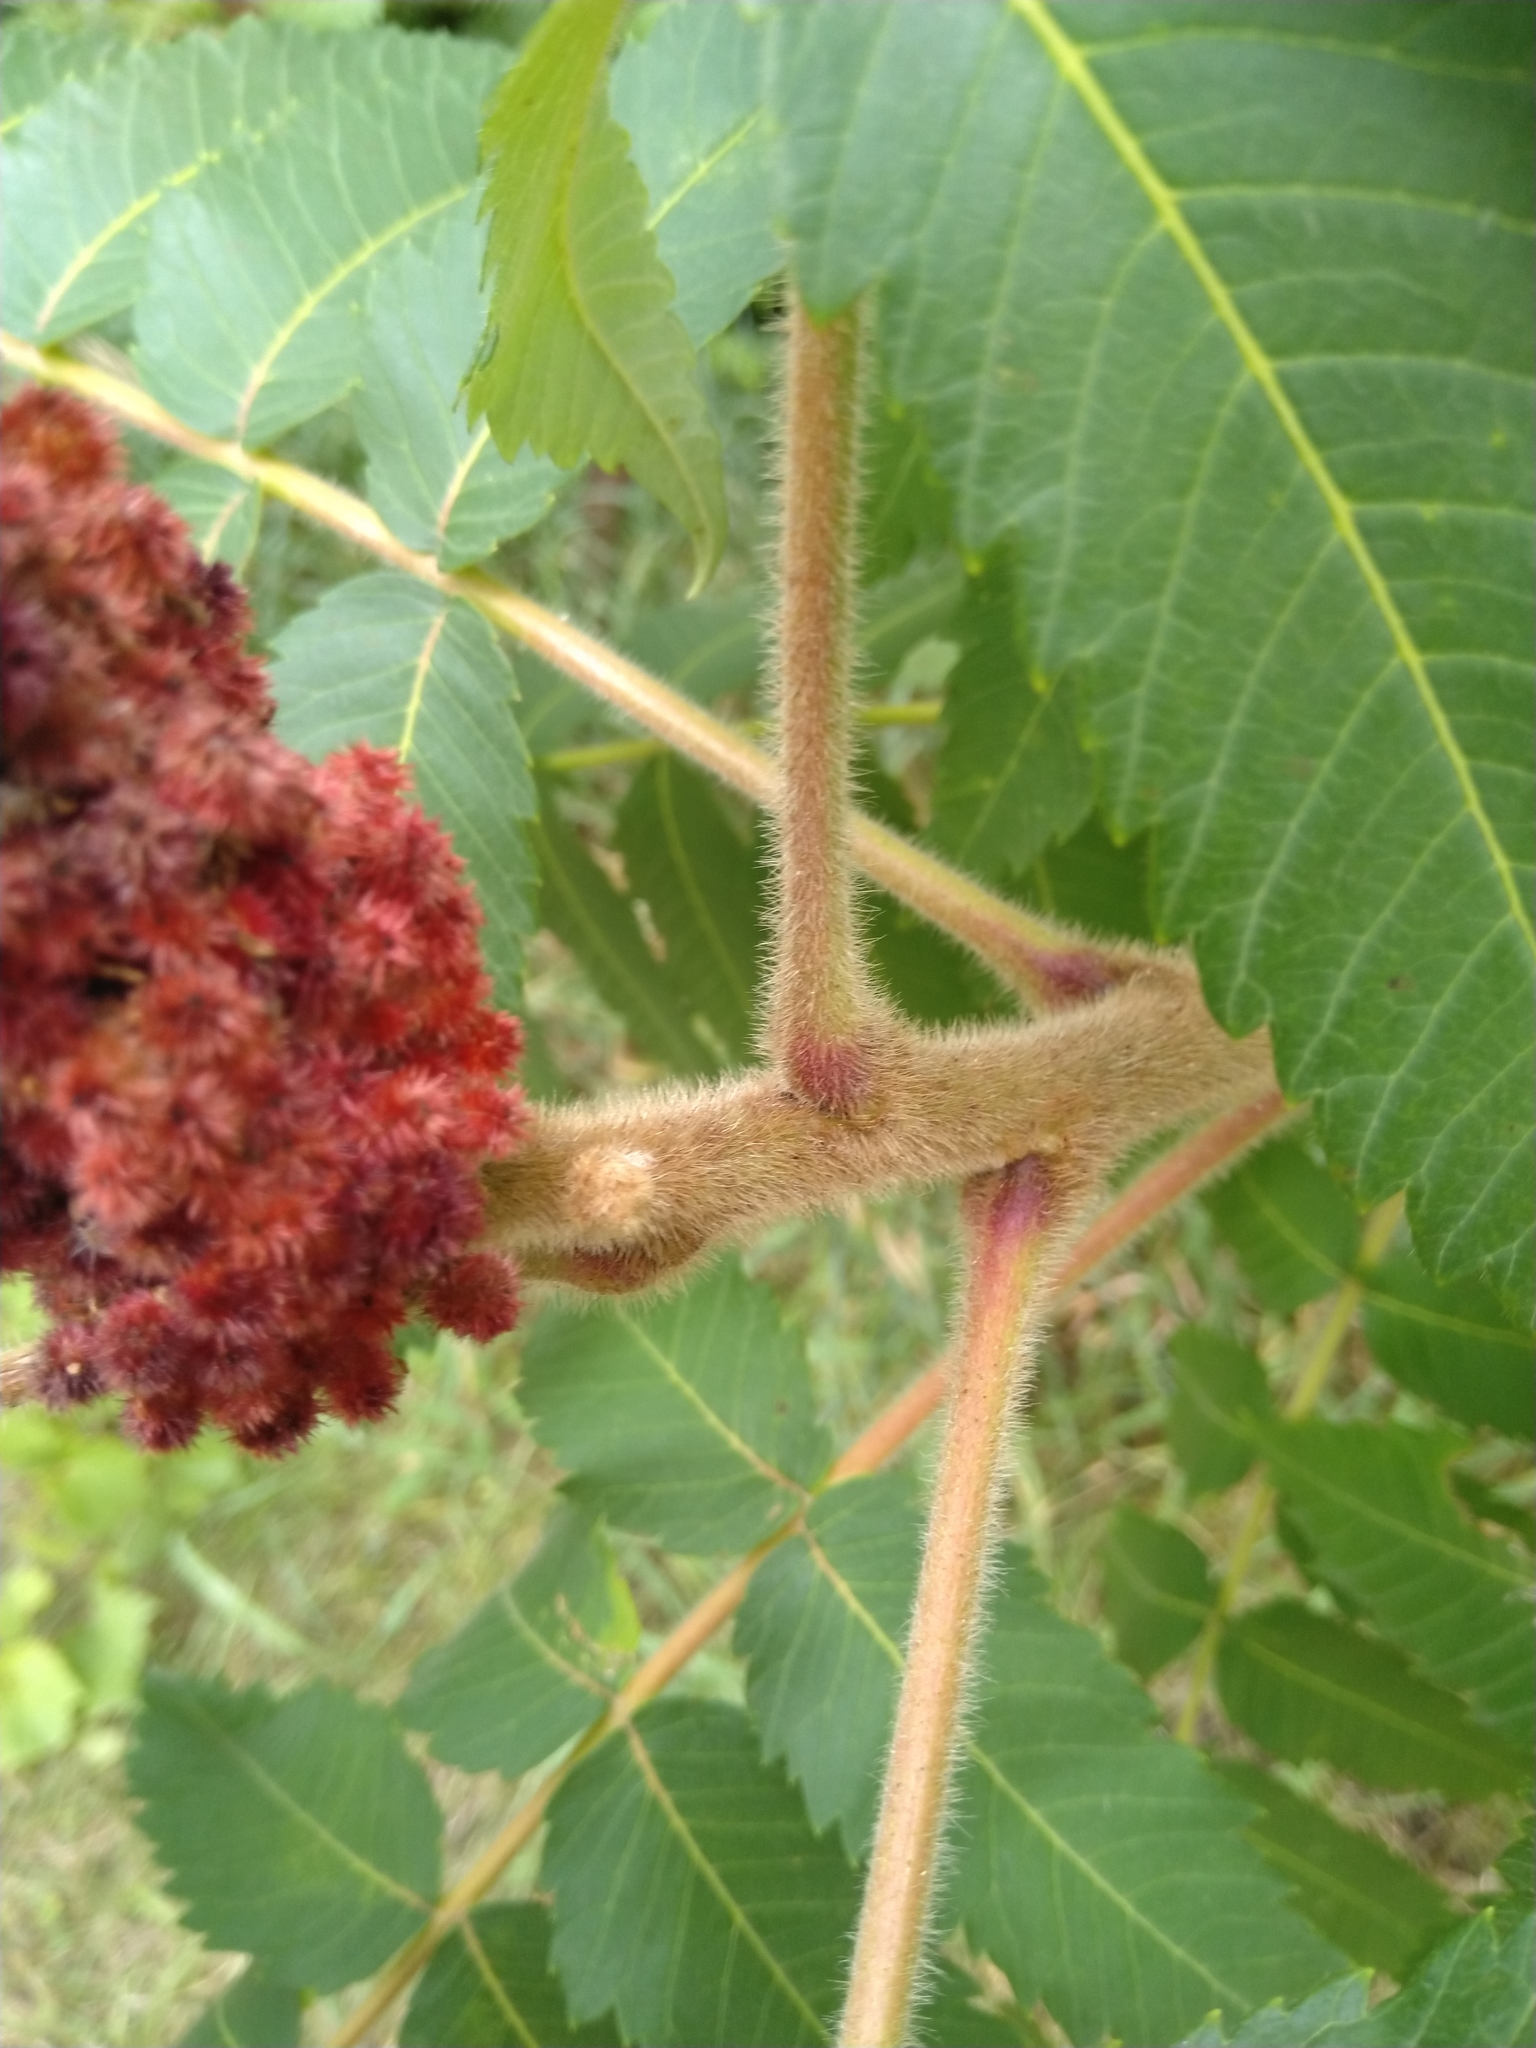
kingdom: Plantae
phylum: Tracheophyta
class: Magnoliopsida
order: Sapindales
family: Anacardiaceae
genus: Rhus
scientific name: Rhus typhina
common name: Staghorn sumac
